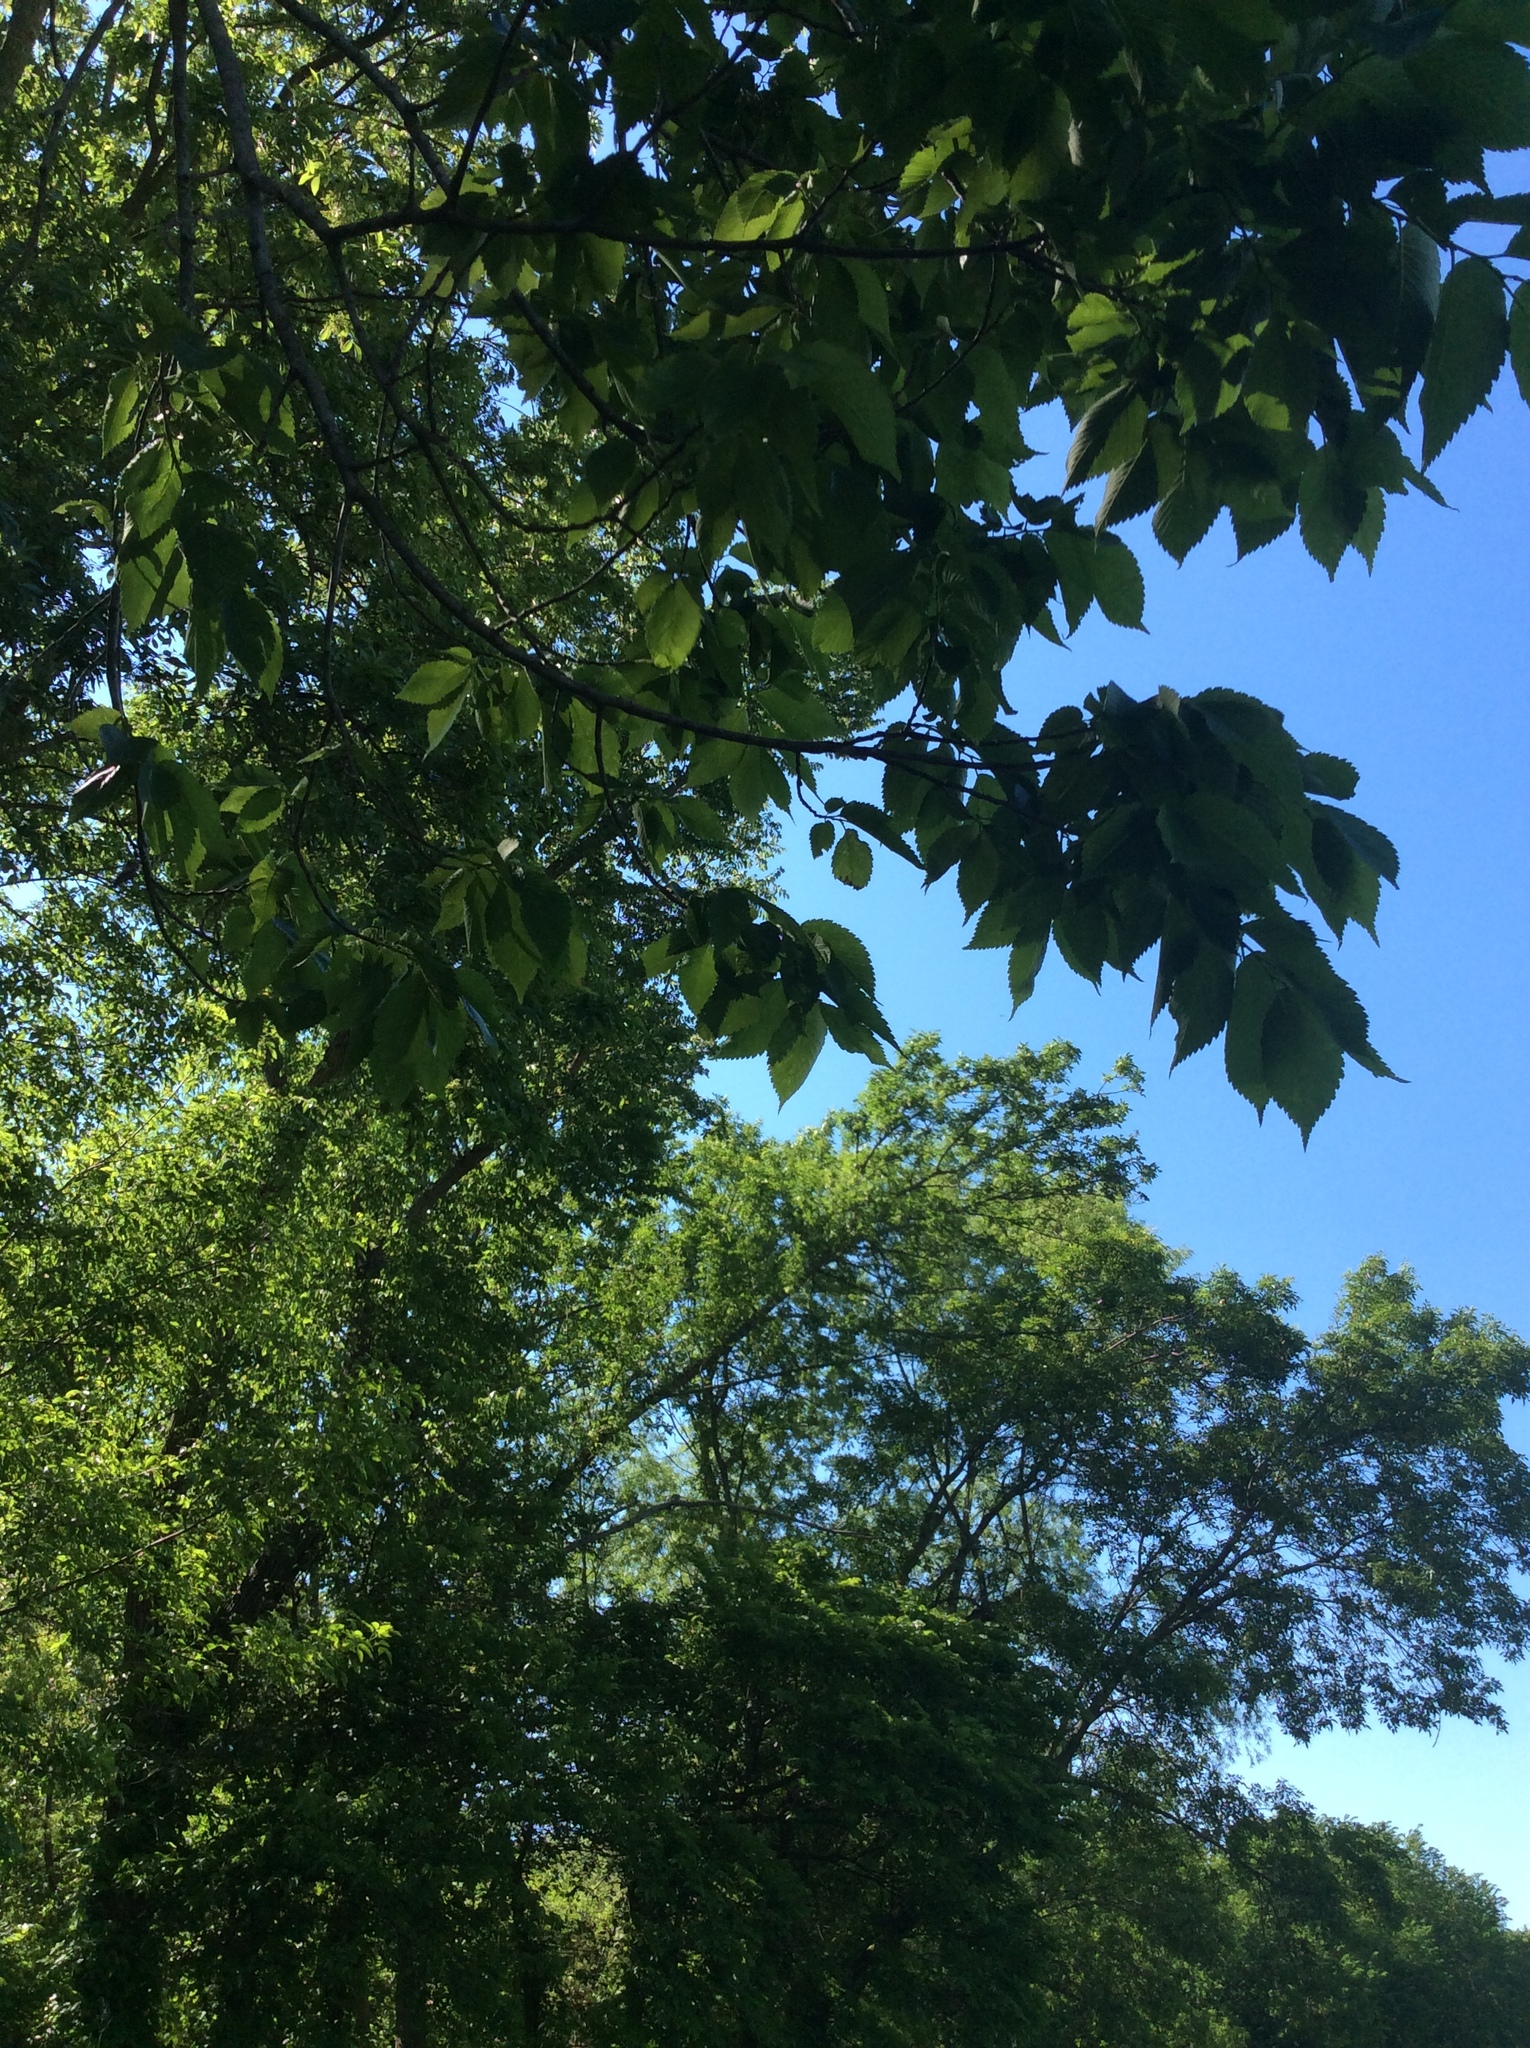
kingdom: Plantae
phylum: Tracheophyta
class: Magnoliopsida
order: Rosales
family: Ulmaceae
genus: Ulmus
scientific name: Ulmus americana
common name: American elm
